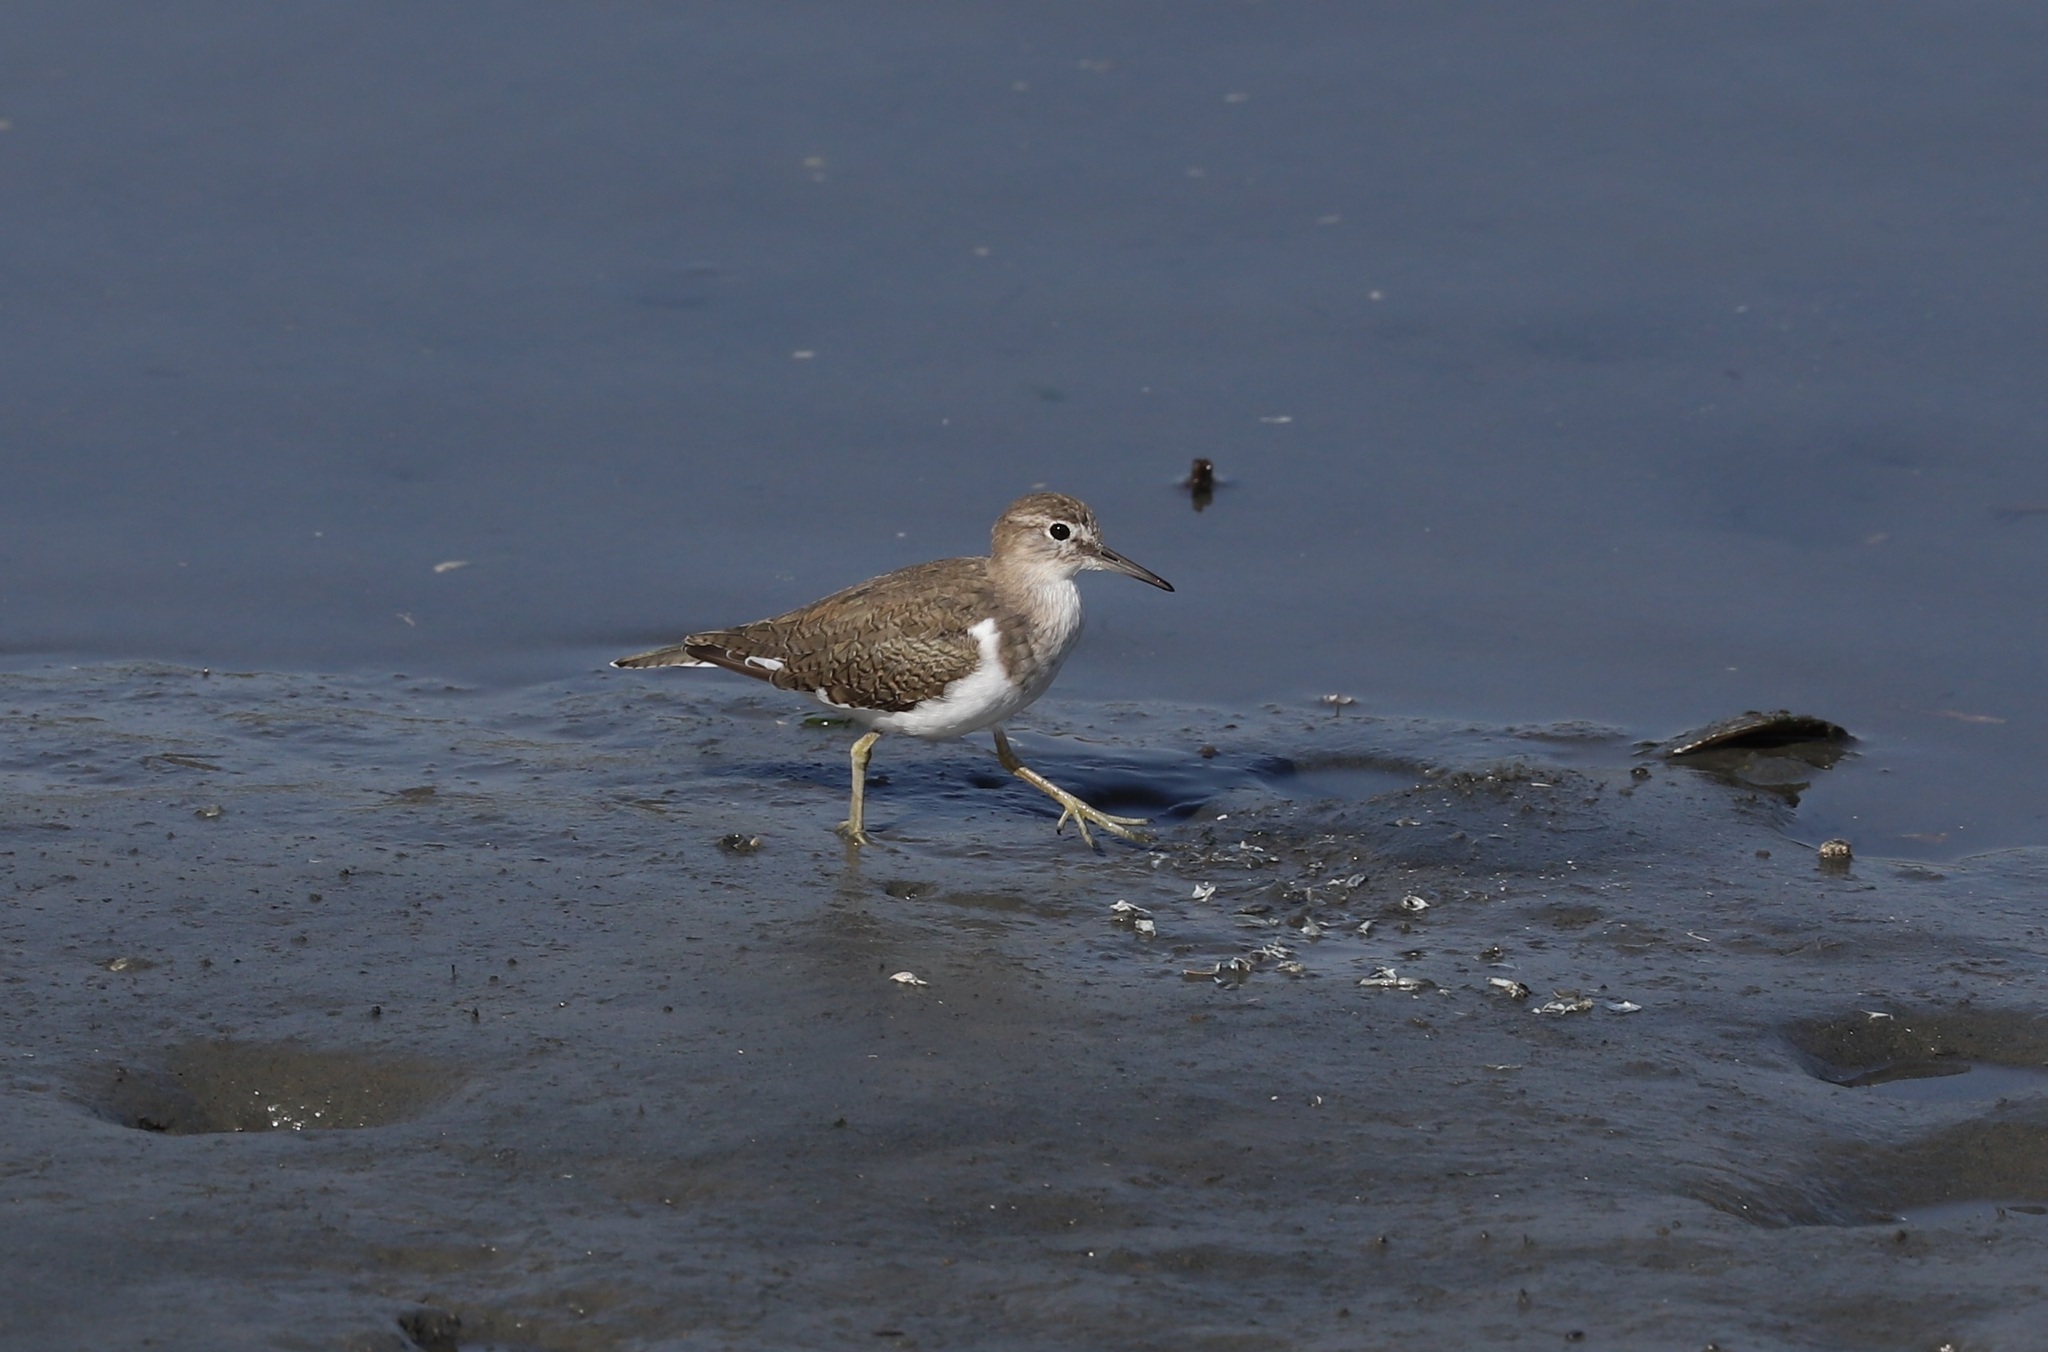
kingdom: Animalia
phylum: Chordata
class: Aves
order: Charadriiformes
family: Scolopacidae
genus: Actitis
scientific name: Actitis hypoleucos
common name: Common sandpiper
